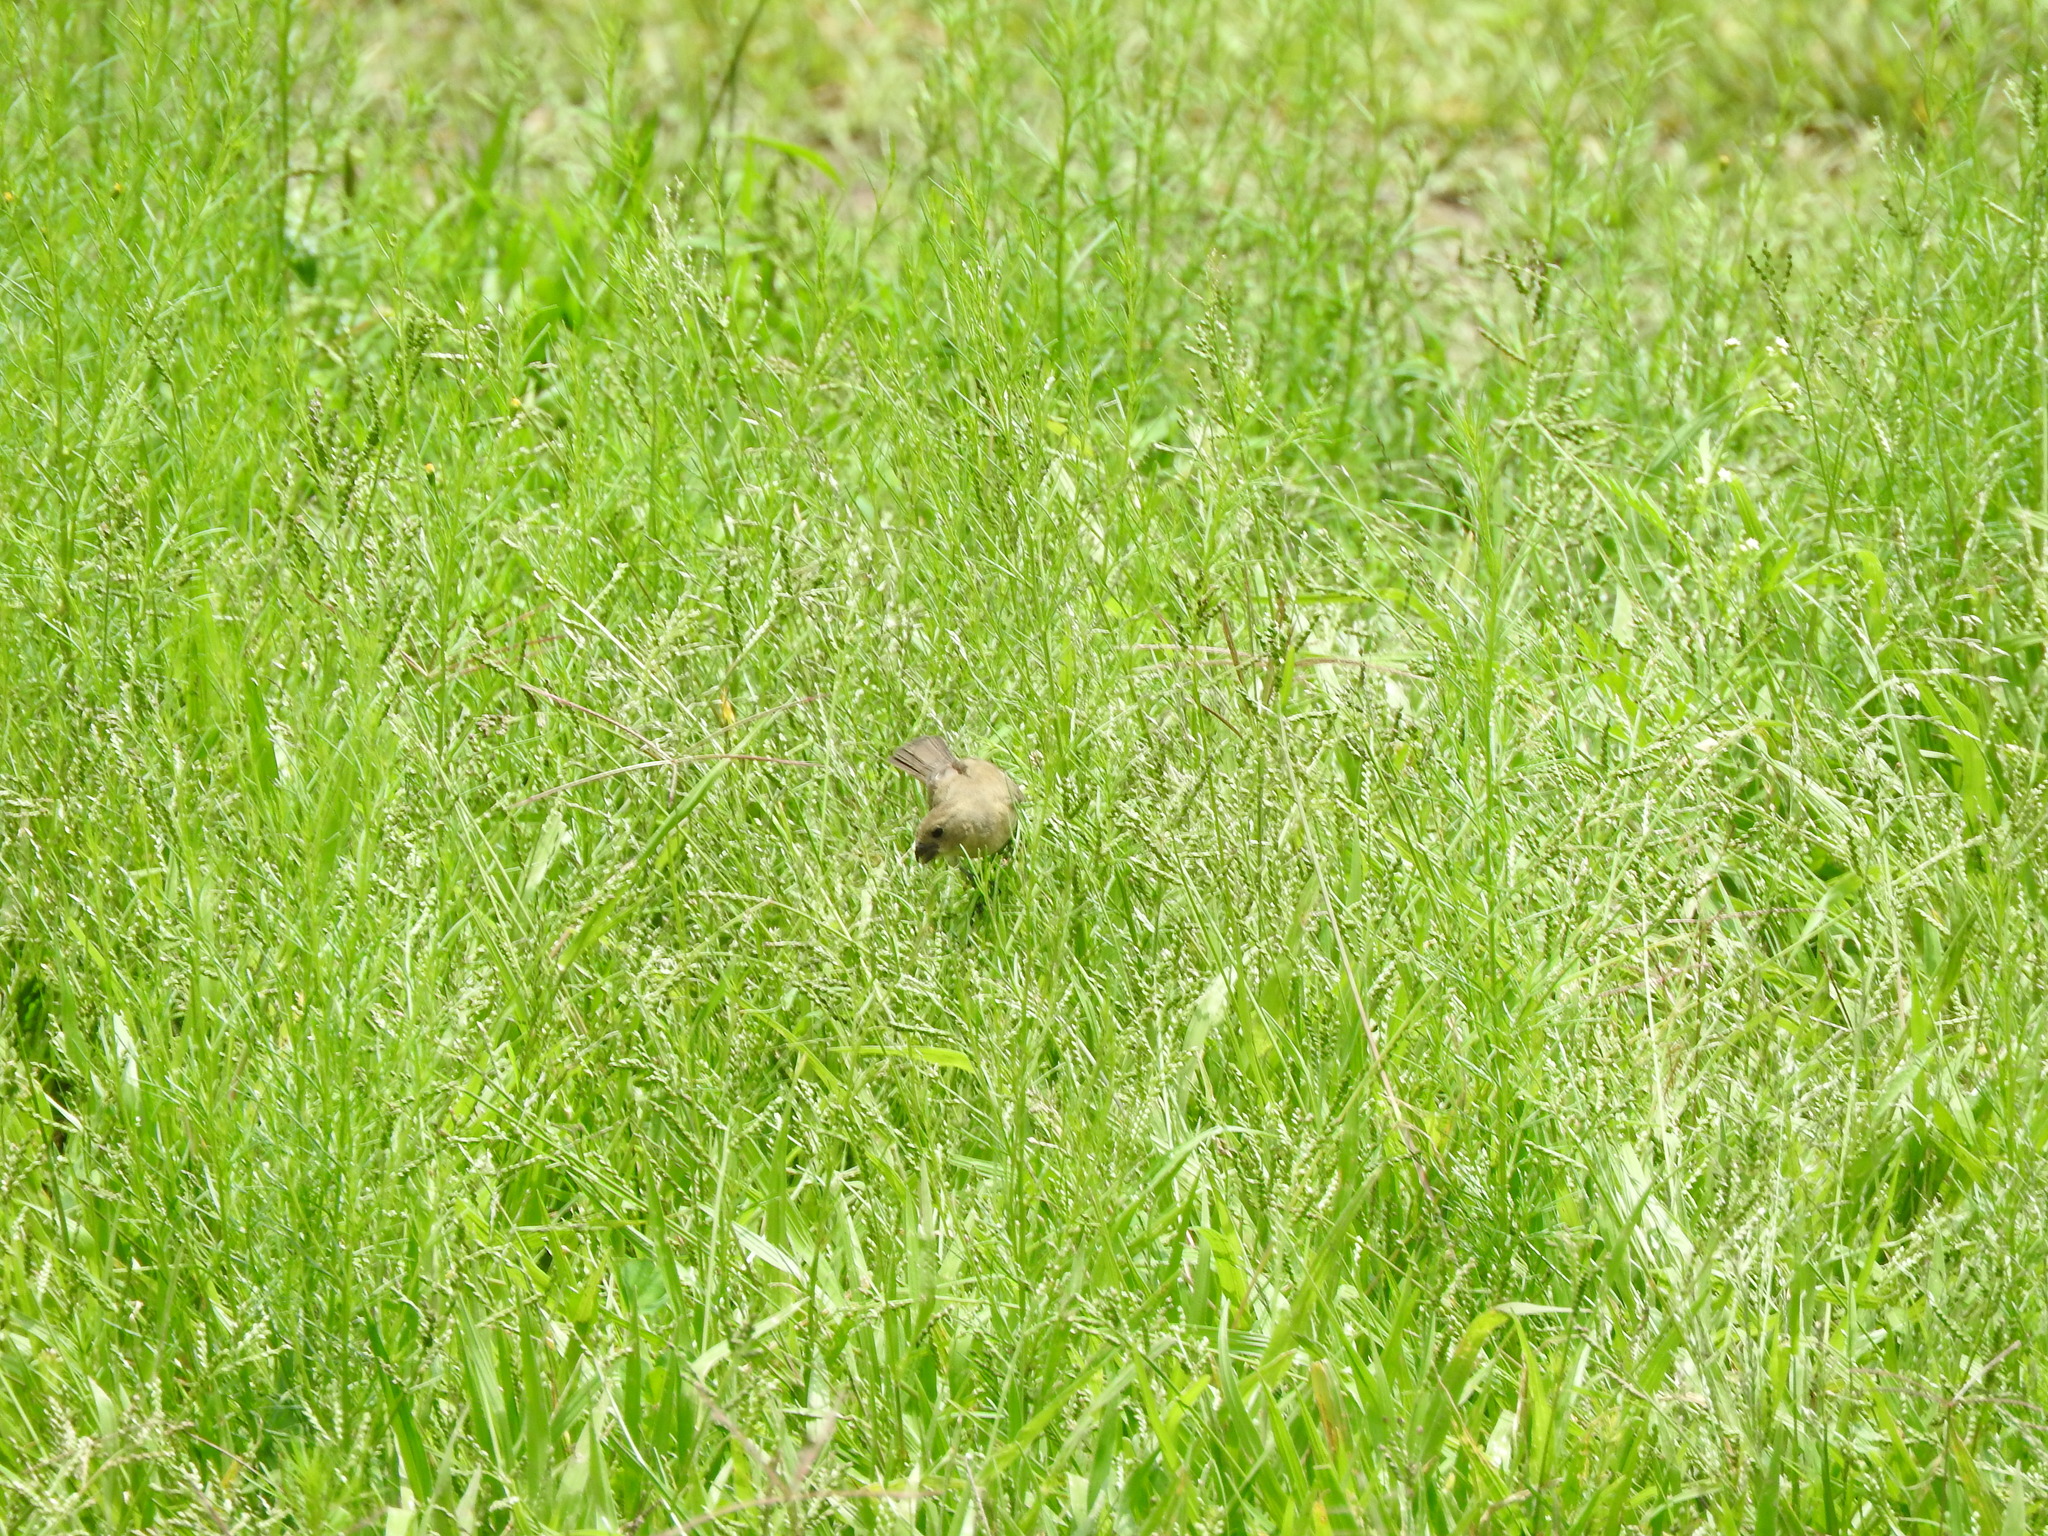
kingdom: Animalia
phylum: Chordata
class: Aves
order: Passeriformes
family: Thraupidae
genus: Sporophila
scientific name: Sporophila torqueola
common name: White-collared seedeater
